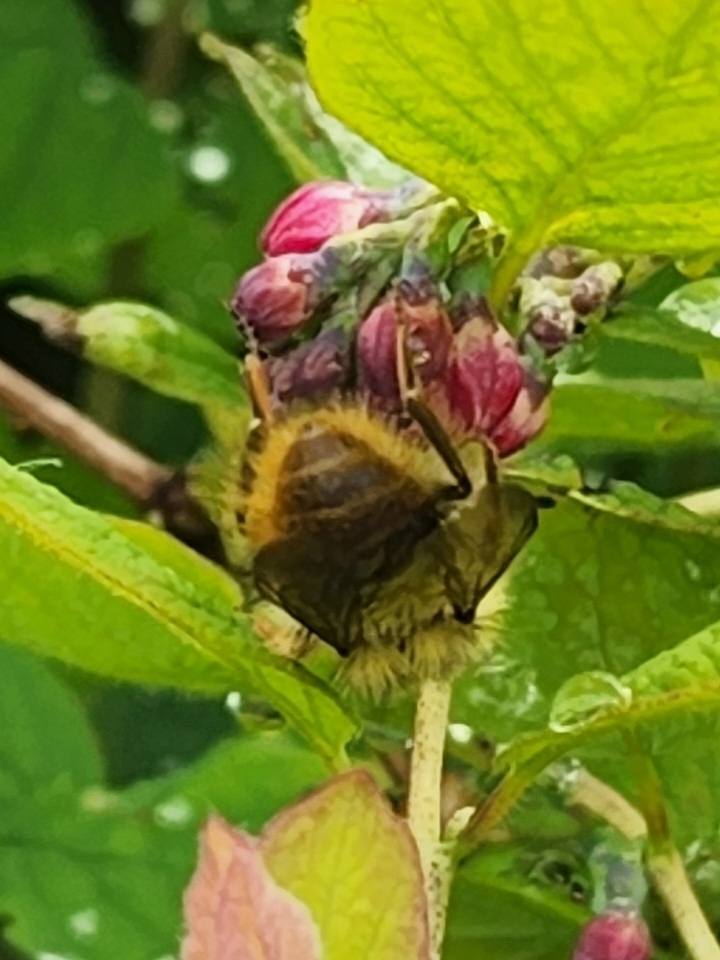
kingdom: Animalia
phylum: Arthropoda
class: Insecta
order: Hymenoptera
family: Apidae
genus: Bombus
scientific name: Bombus mixtus
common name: Fuzzy-horned bumble bee
